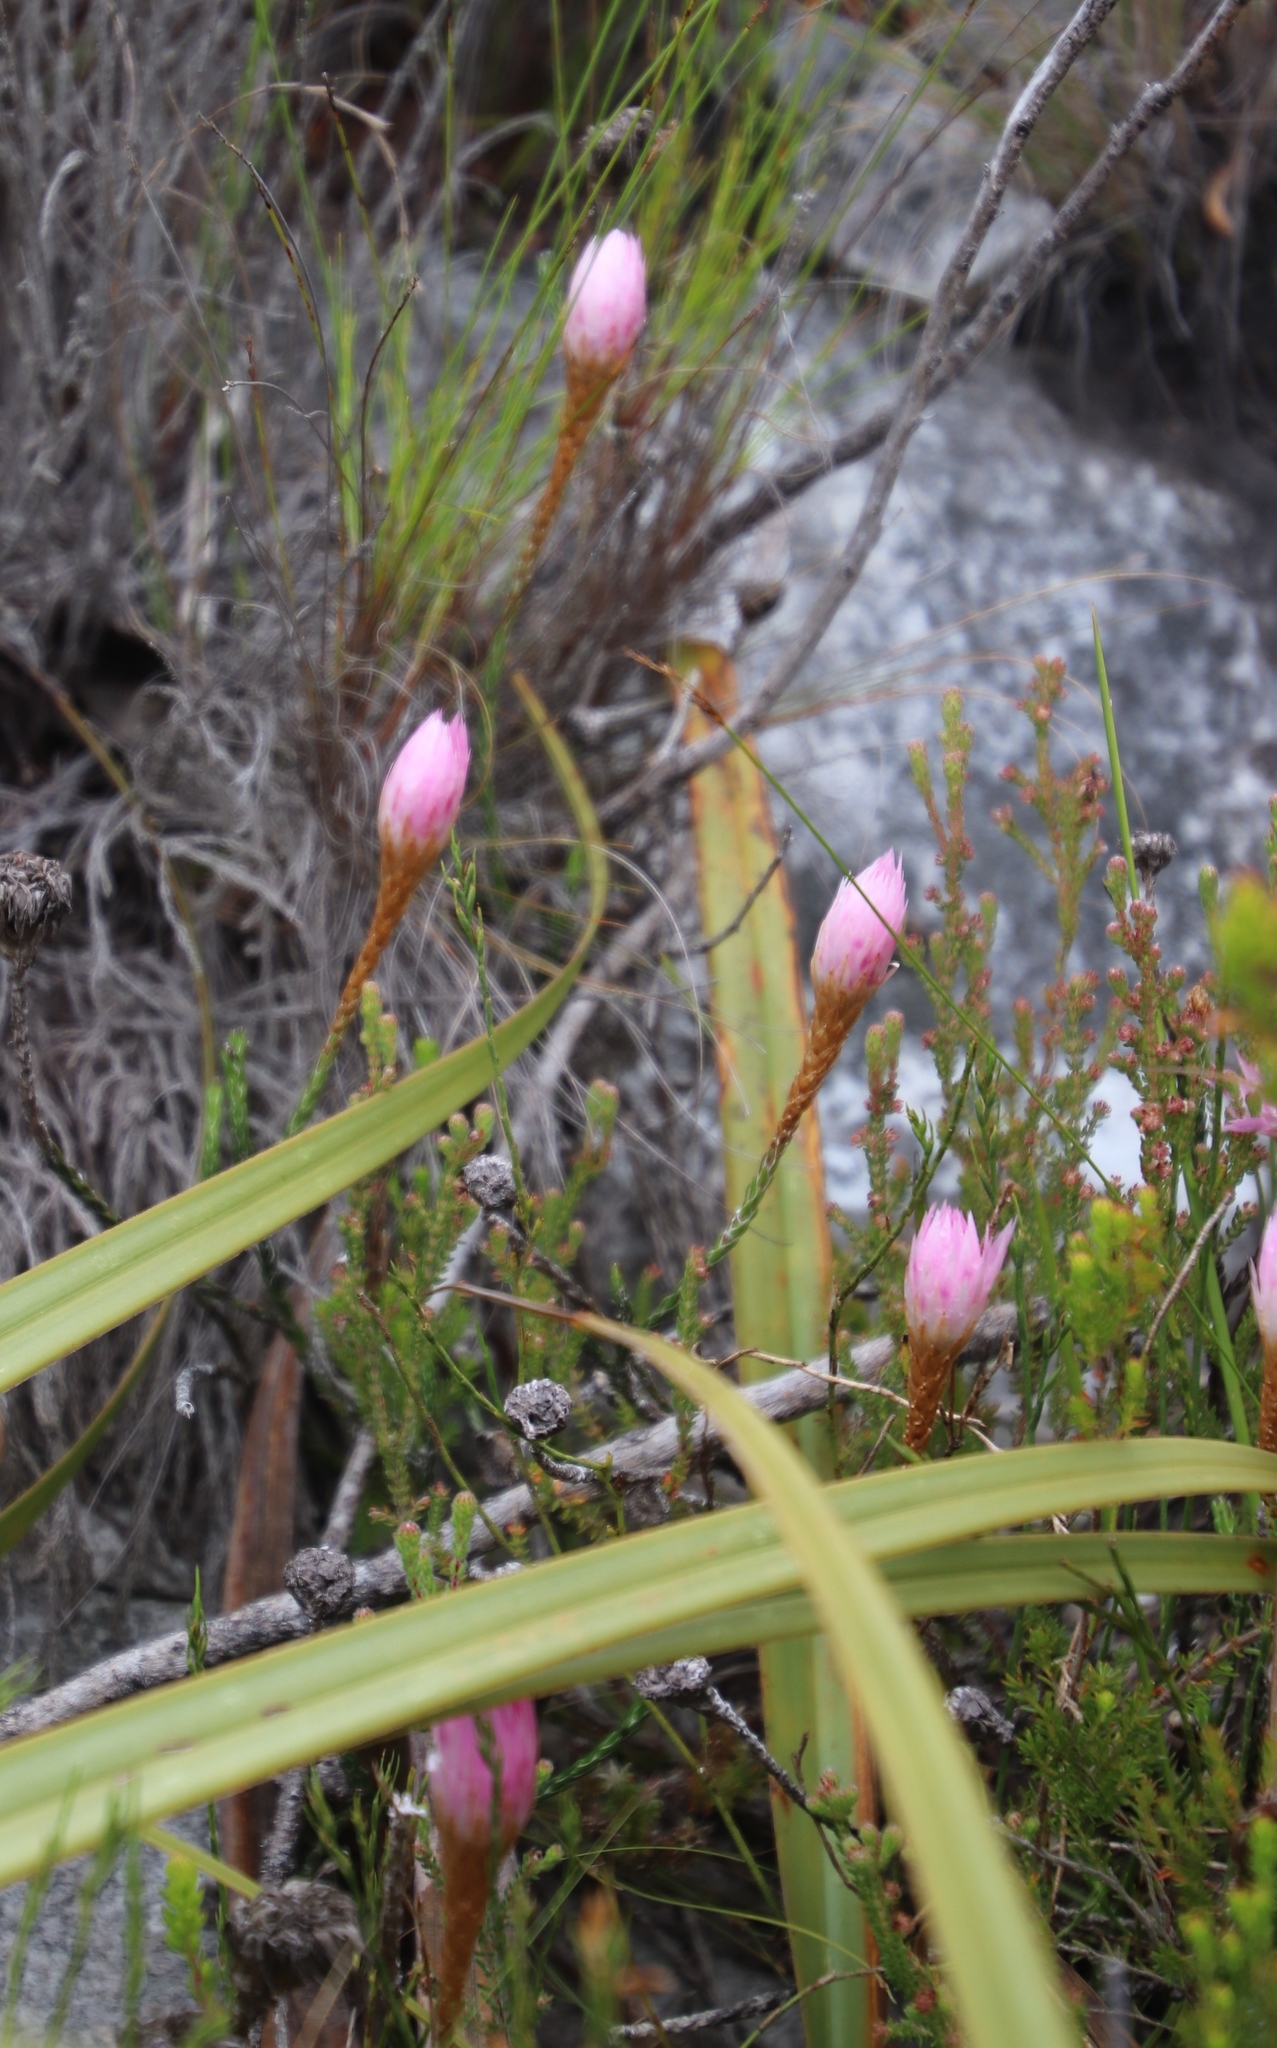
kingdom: Plantae
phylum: Tracheophyta
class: Magnoliopsida
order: Asterales
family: Asteraceae
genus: Edmondia
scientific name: Edmondia pinifolia
